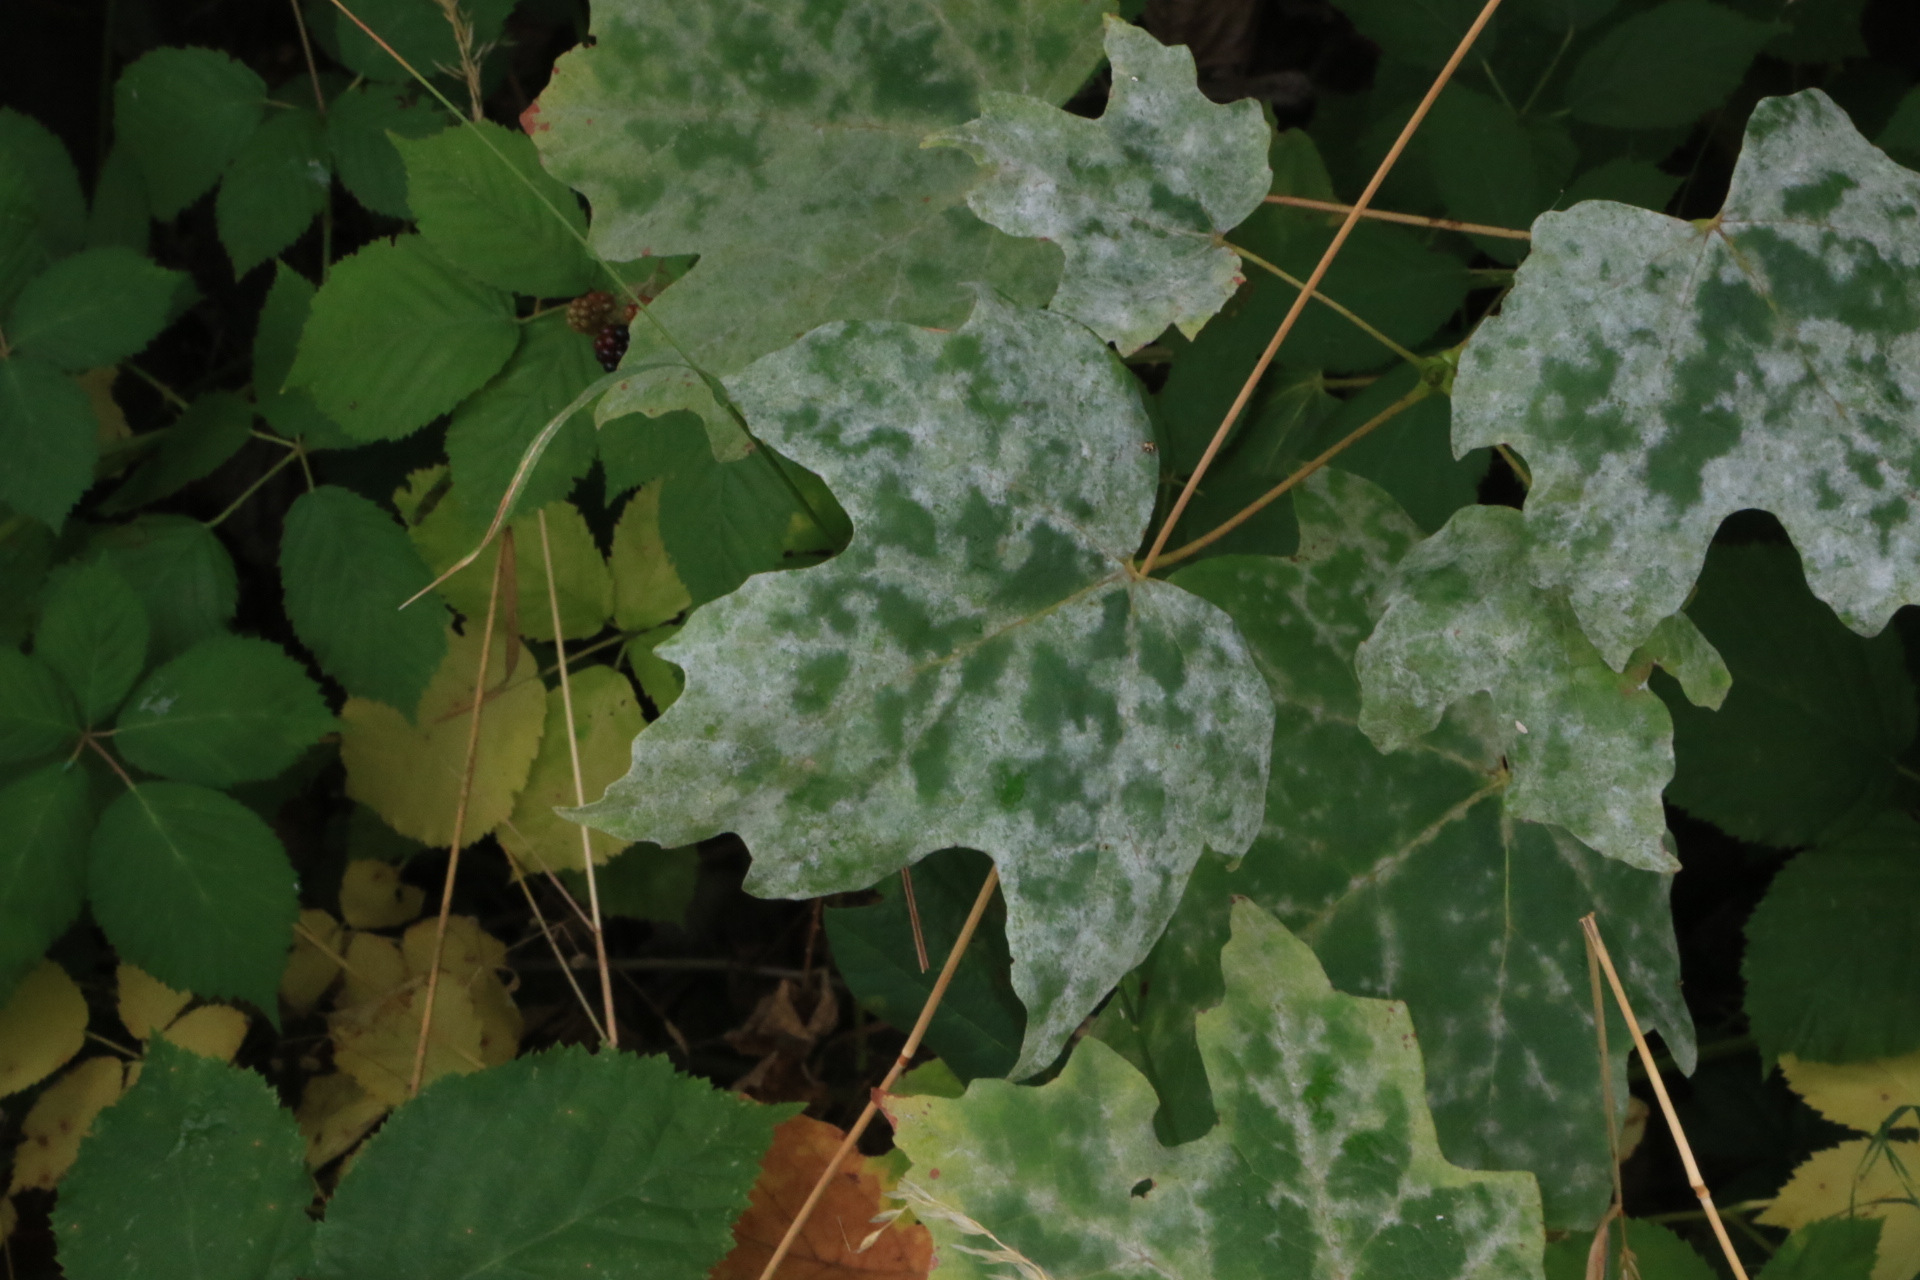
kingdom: Fungi
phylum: Ascomycota
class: Leotiomycetes
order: Helotiales
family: Erysiphaceae
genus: Sawadaea
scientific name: Sawadaea bicornis
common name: Maple mildew
